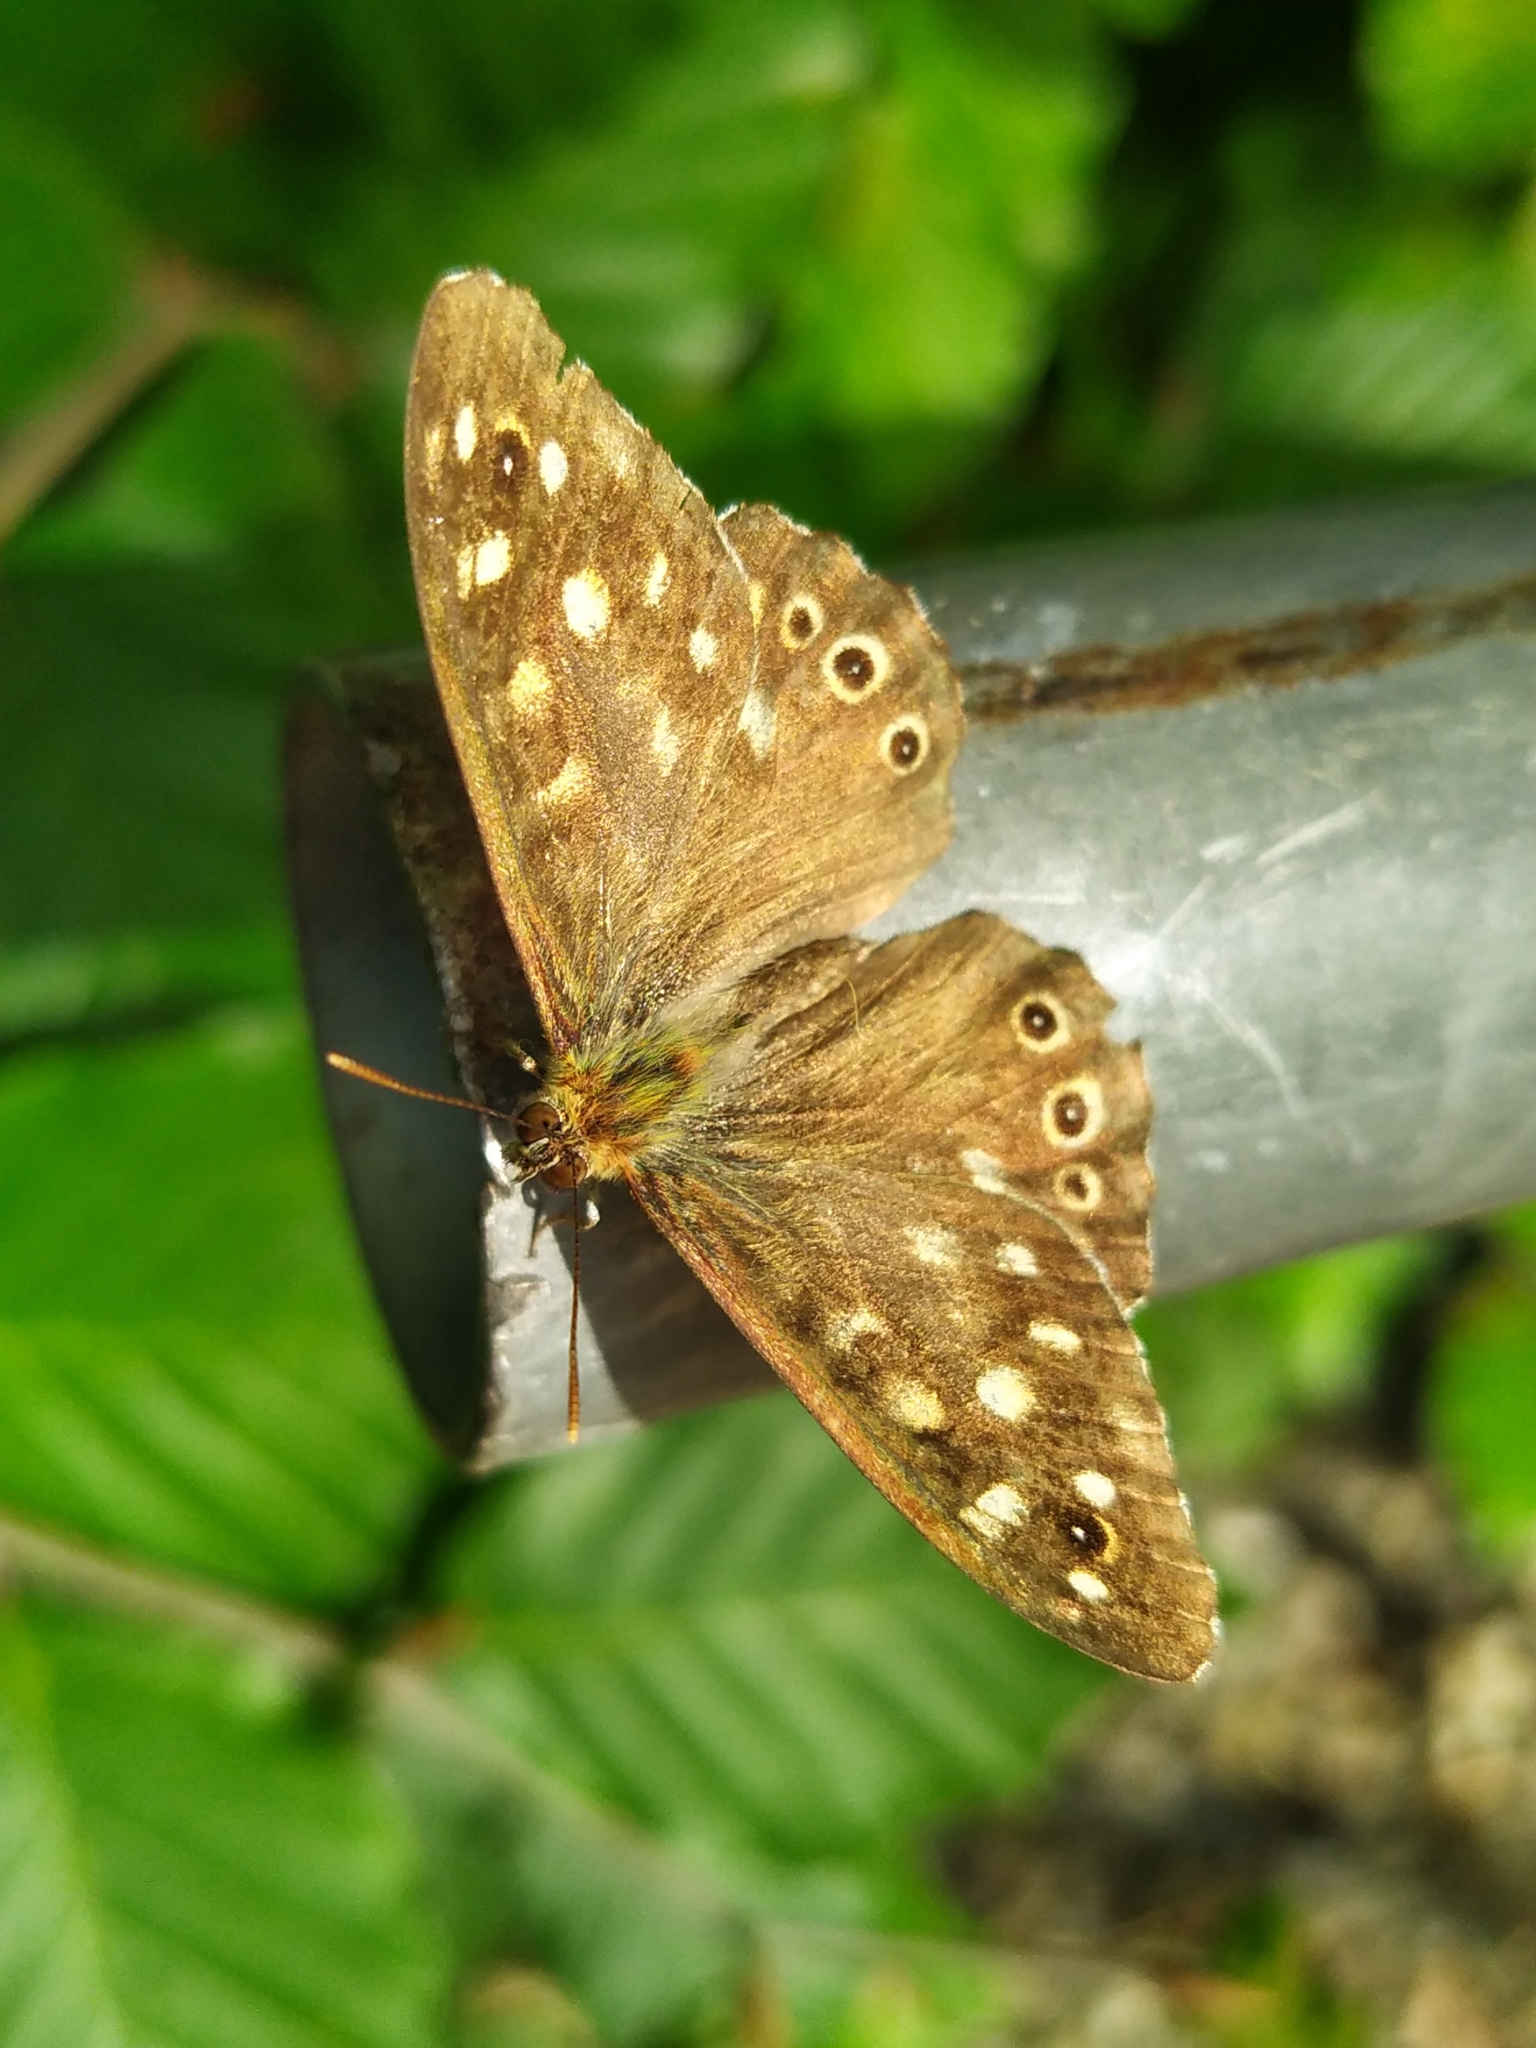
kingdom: Animalia
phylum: Arthropoda
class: Insecta
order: Lepidoptera
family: Nymphalidae
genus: Pararge
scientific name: Pararge aegeria
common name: Speckled wood
